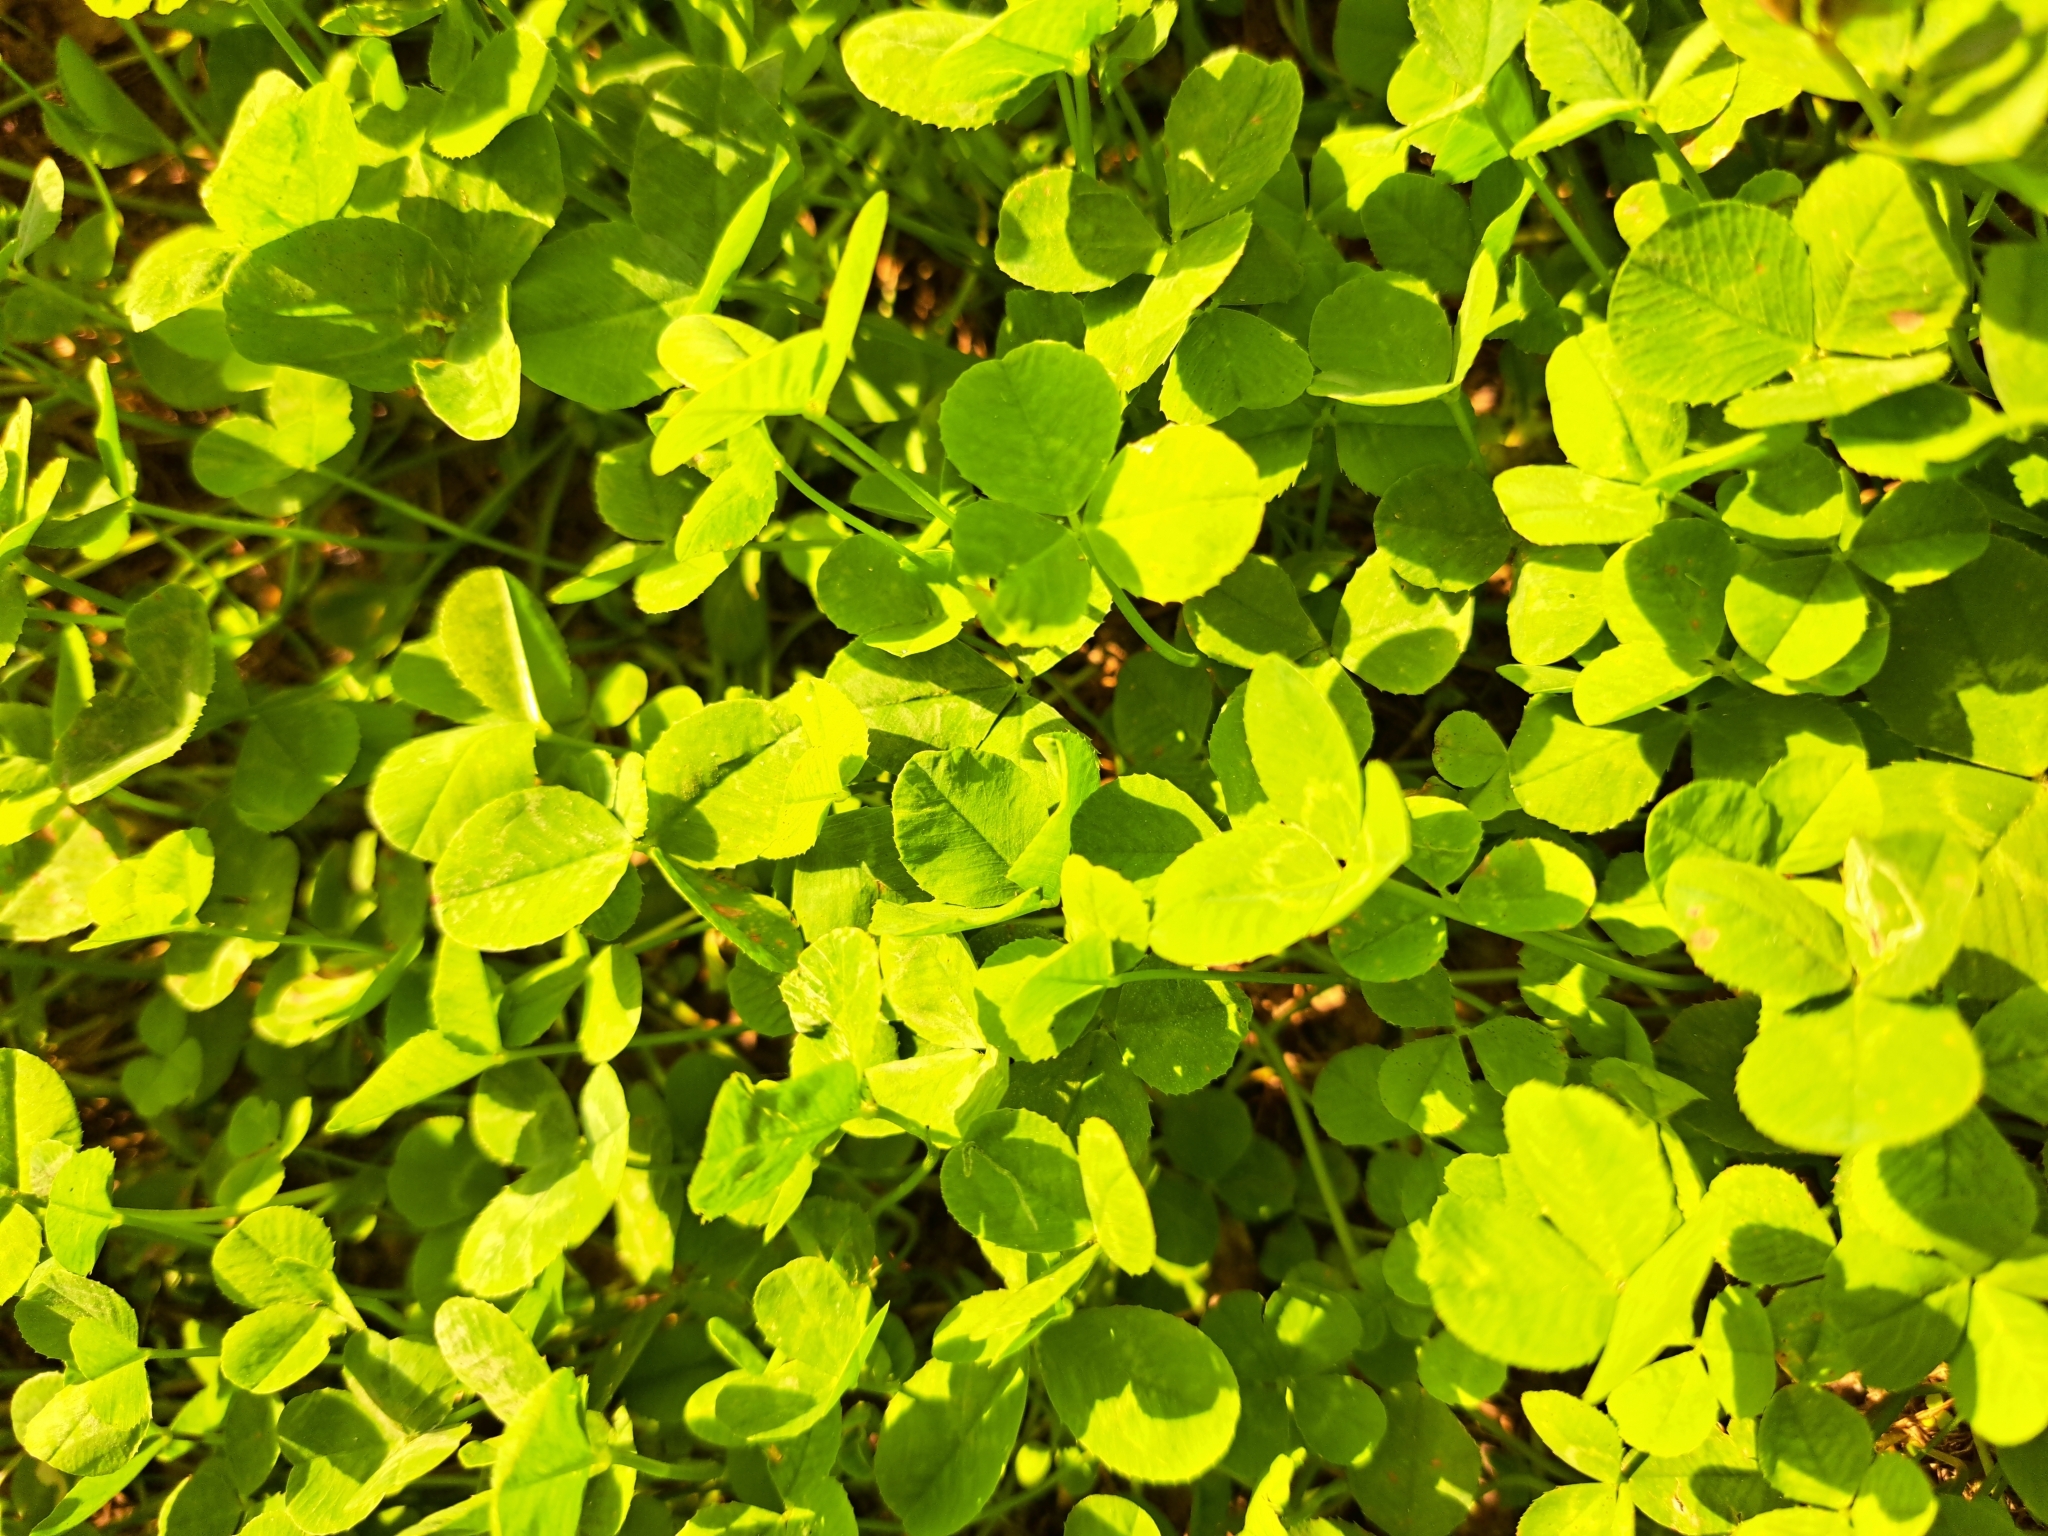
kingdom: Plantae
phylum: Tracheophyta
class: Magnoliopsida
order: Fabales
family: Fabaceae
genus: Trifolium
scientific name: Trifolium repens
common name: White clover
